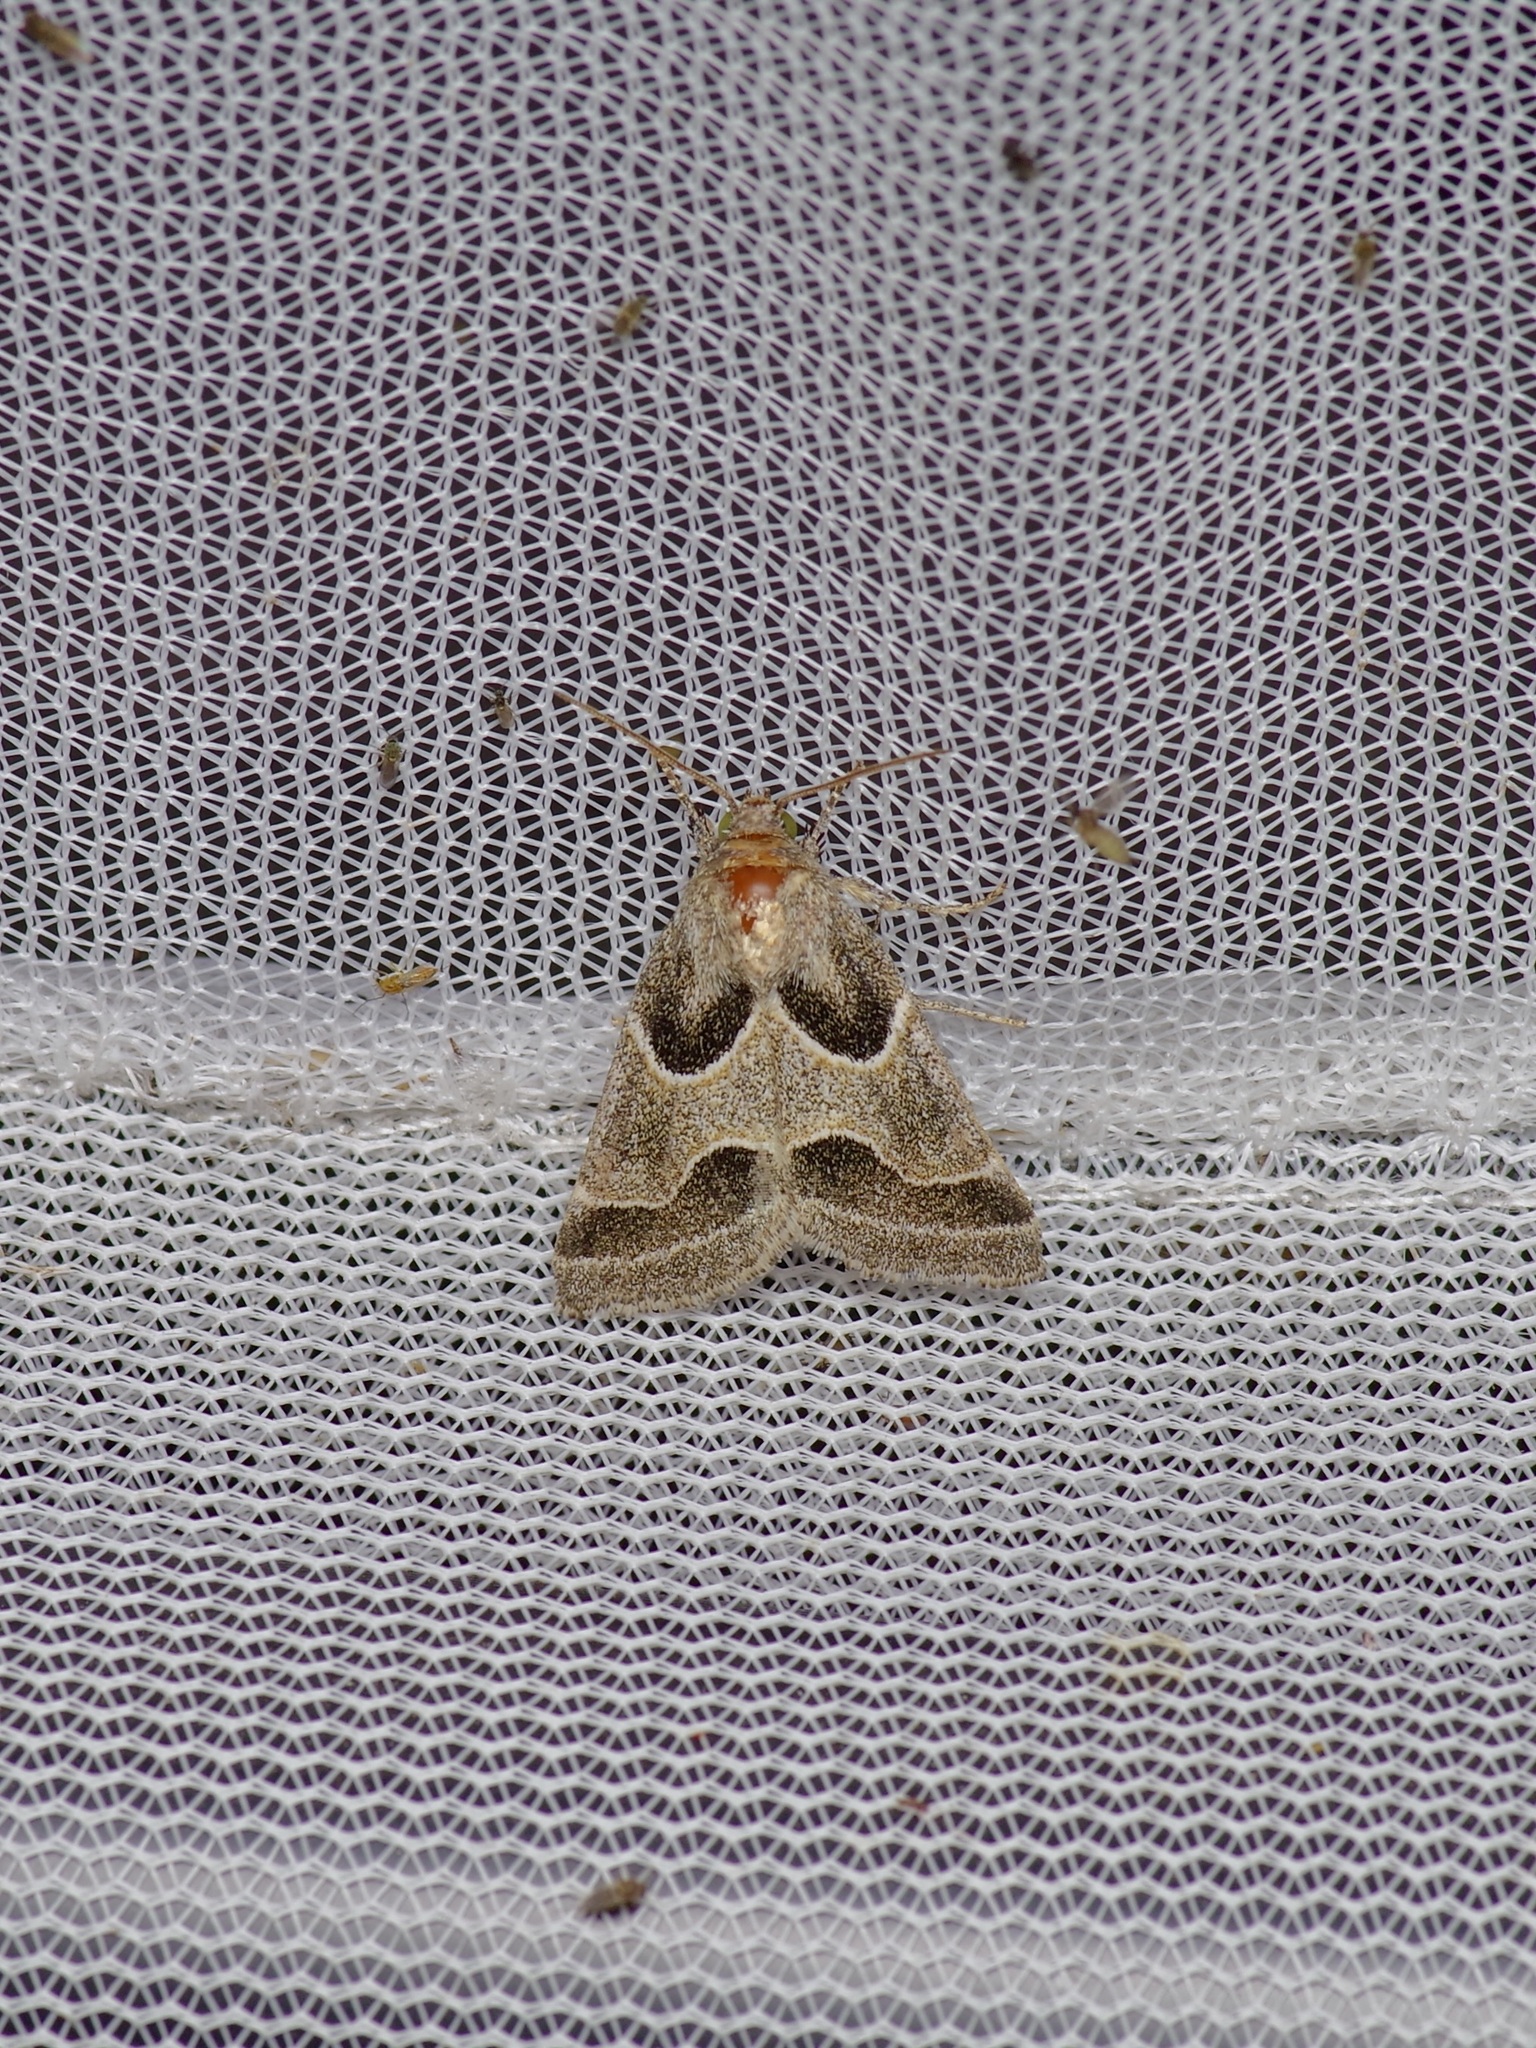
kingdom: Animalia
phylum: Arthropoda
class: Insecta
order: Lepidoptera
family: Noctuidae
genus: Schinia
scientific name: Schinia rivulosa
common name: Scarce meal-moth
